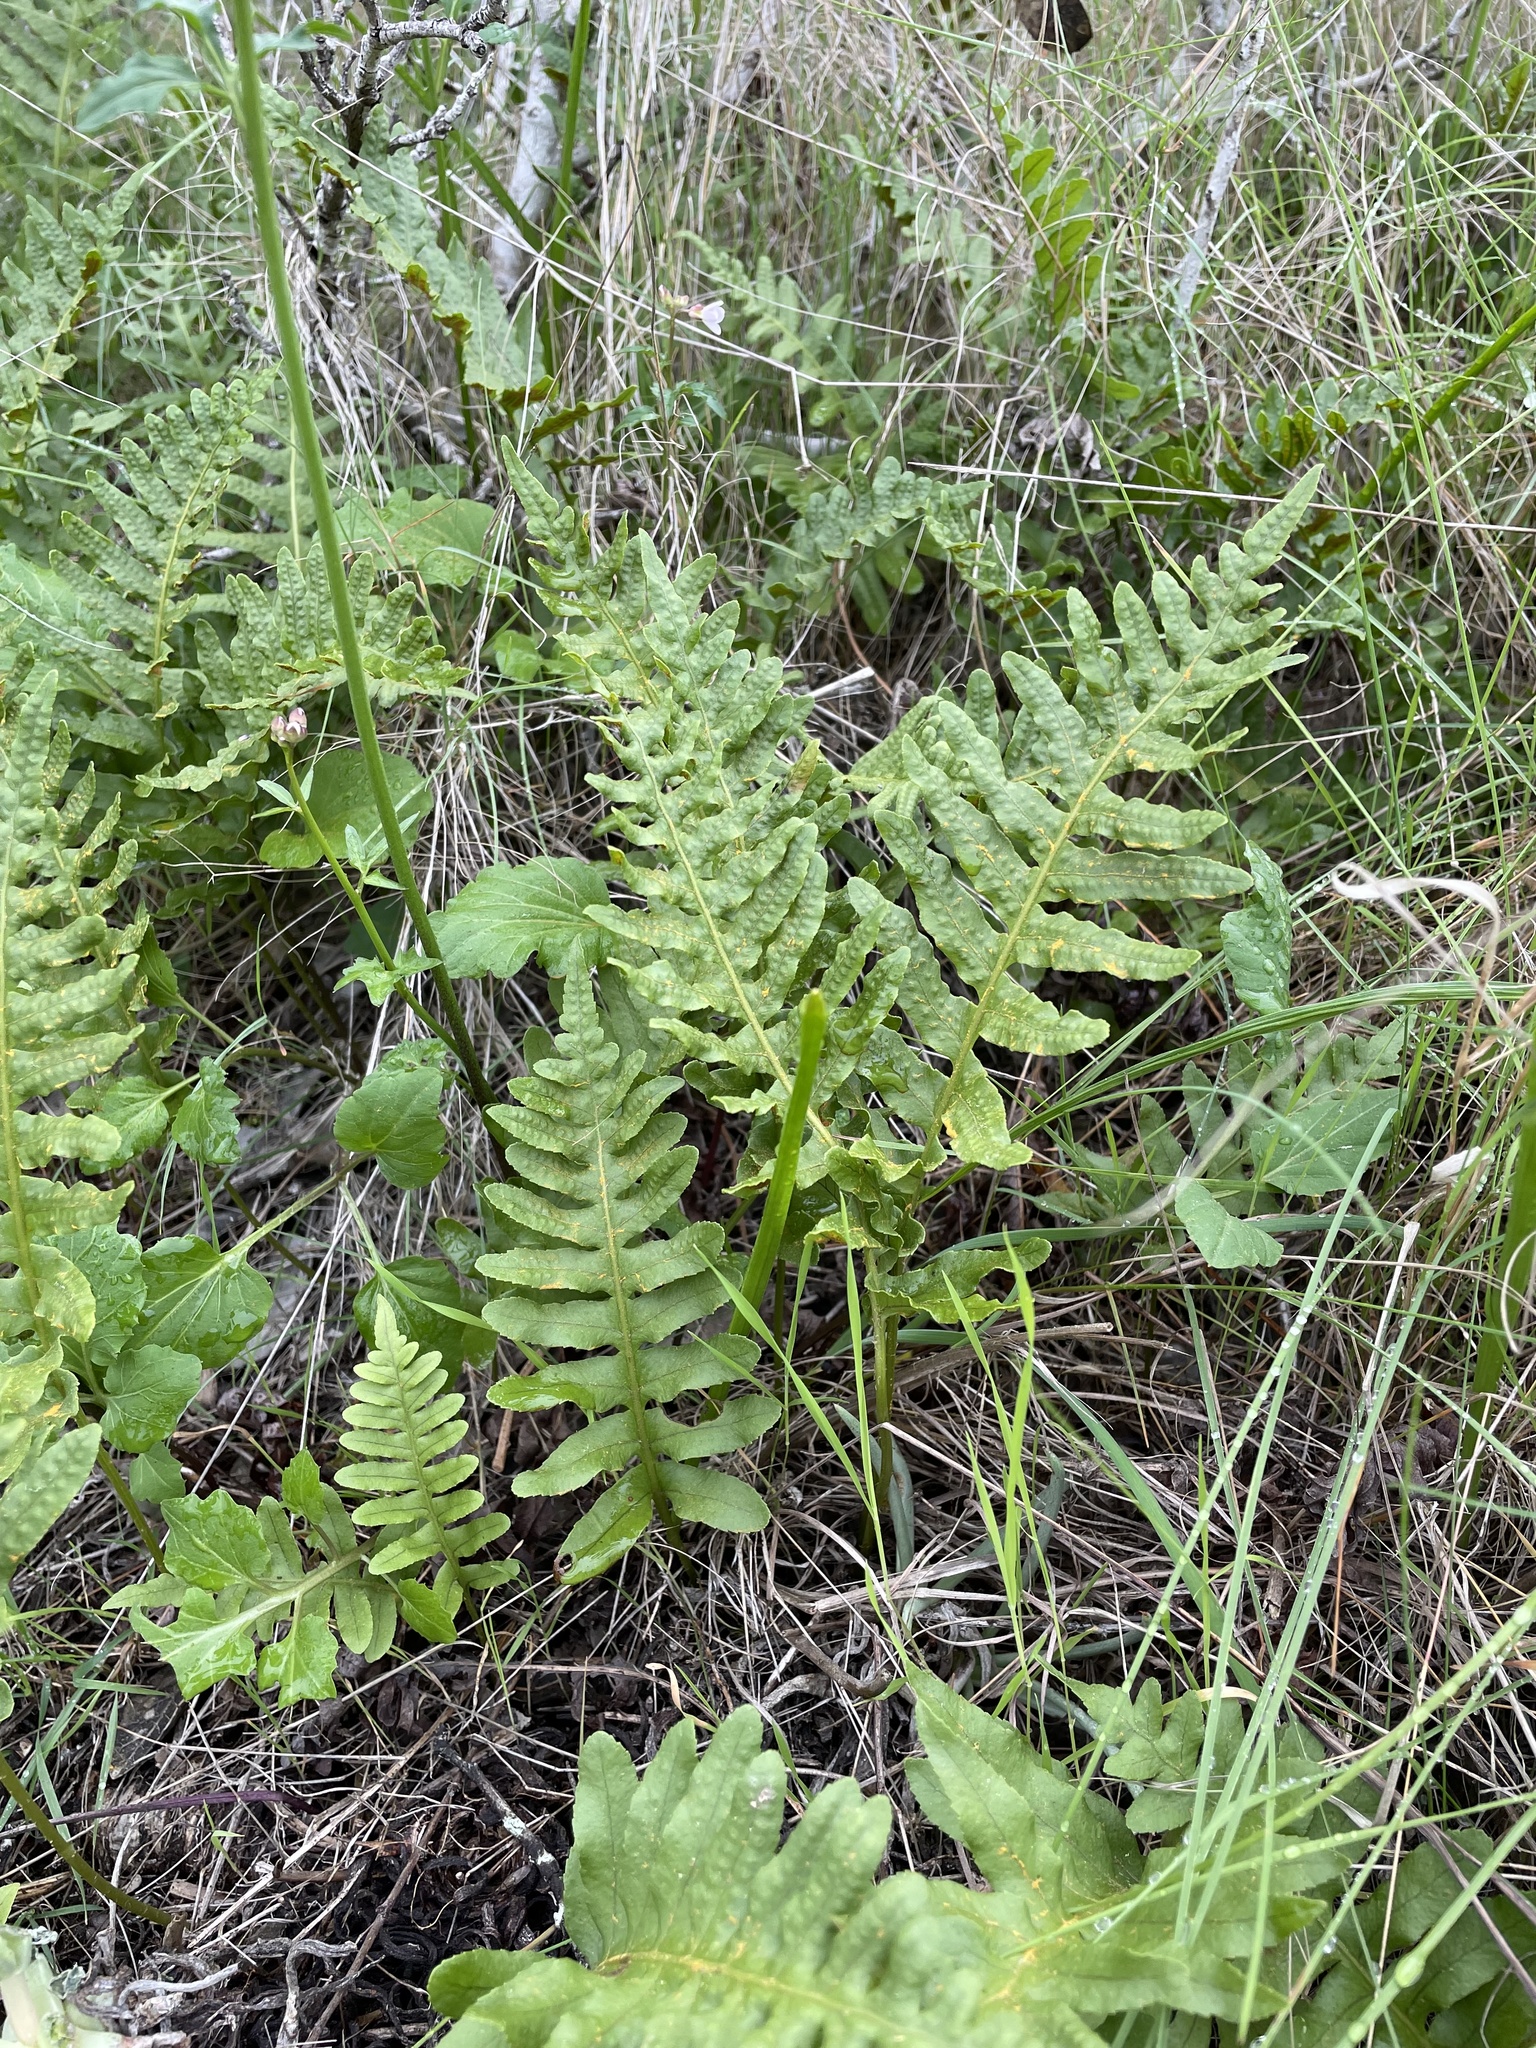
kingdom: Plantae
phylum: Tracheophyta
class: Polypodiopsida
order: Polypodiales
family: Polypodiaceae
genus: Polypodium
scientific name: Polypodium californicum
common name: California polypody
